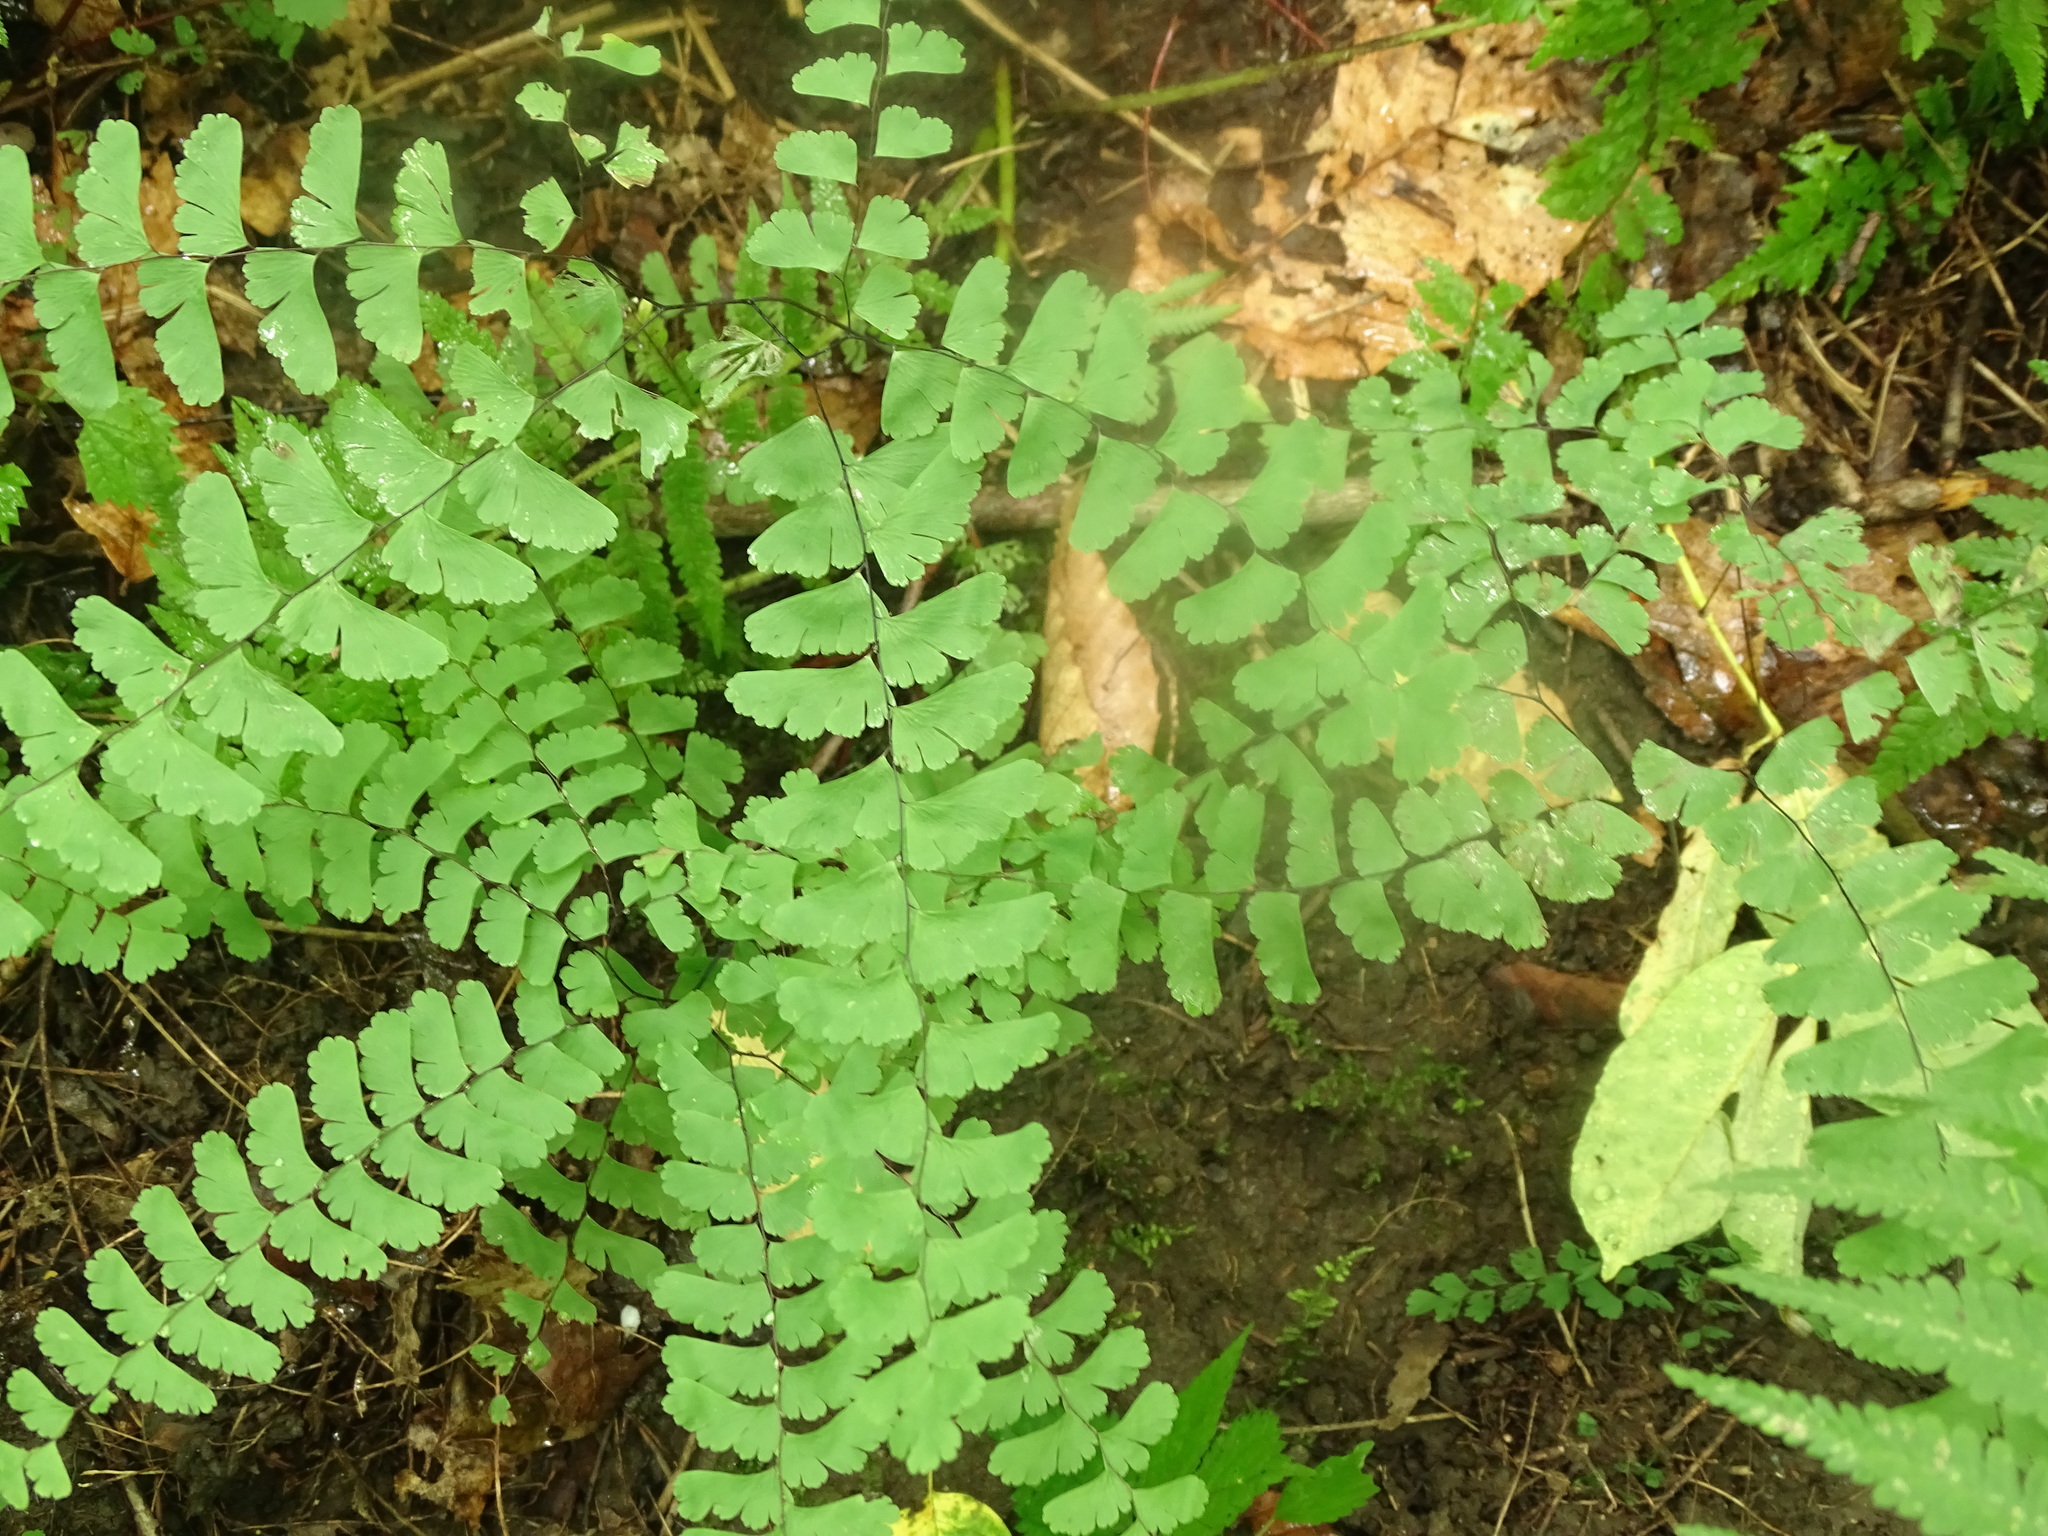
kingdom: Plantae
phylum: Tracheophyta
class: Polypodiopsida
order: Polypodiales
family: Pteridaceae
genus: Adiantum
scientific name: Adiantum pedatum
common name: Five-finger fern
